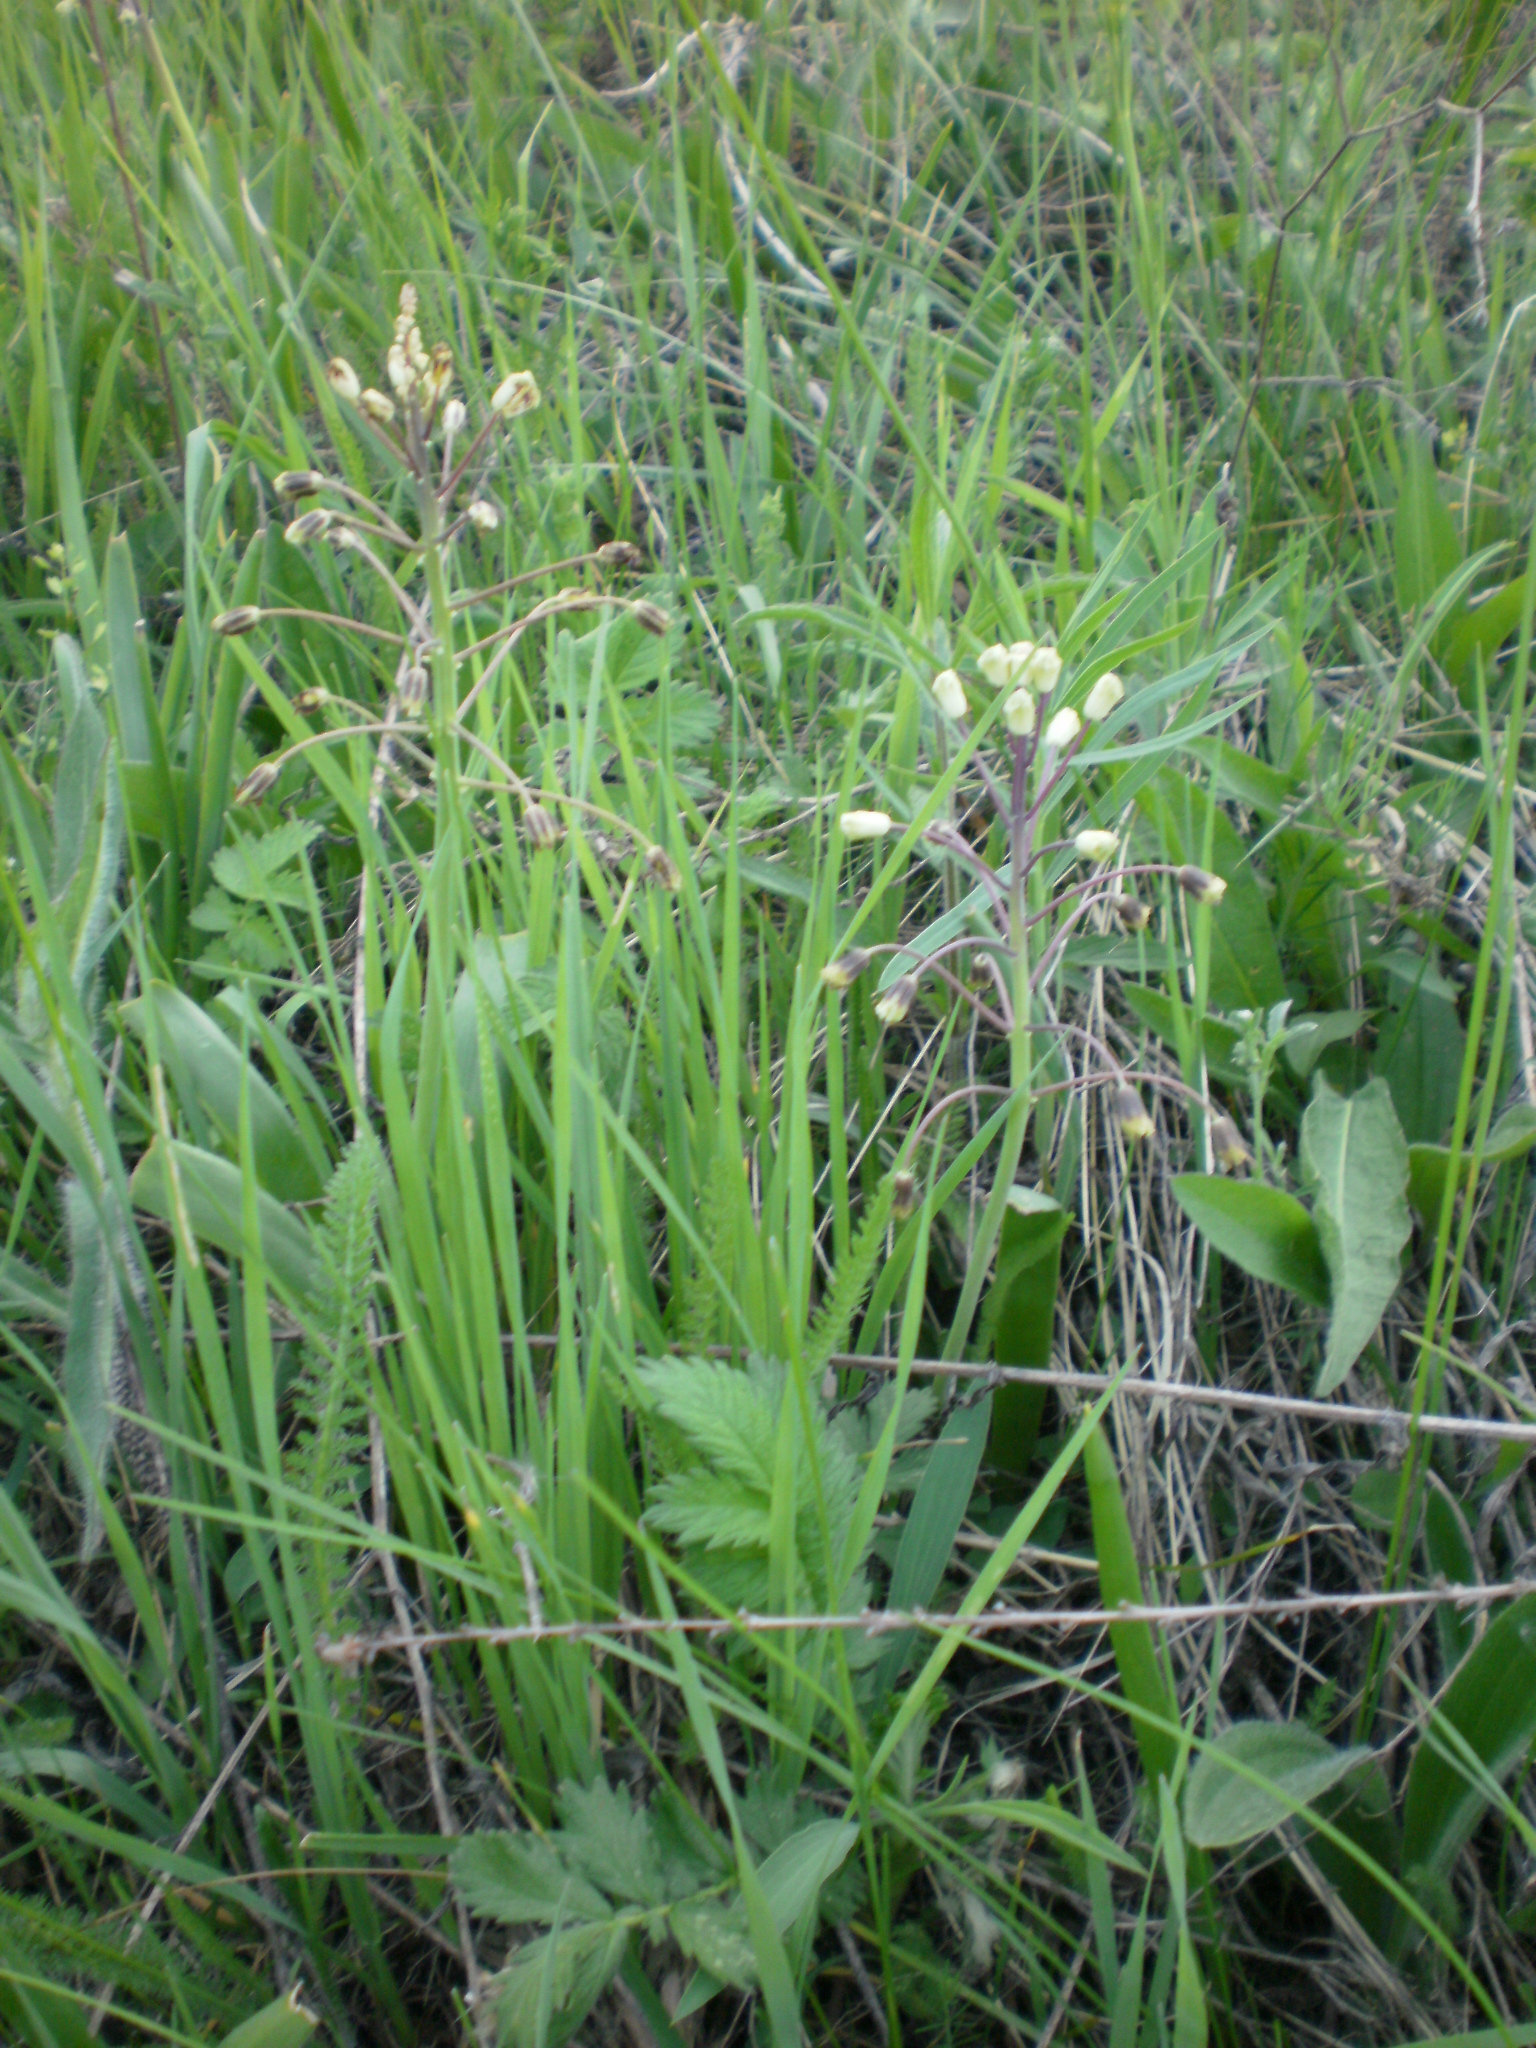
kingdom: Plantae
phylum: Tracheophyta
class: Liliopsida
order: Asparagales
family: Asparagaceae
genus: Bellevalia
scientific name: Bellevalia speciosa
